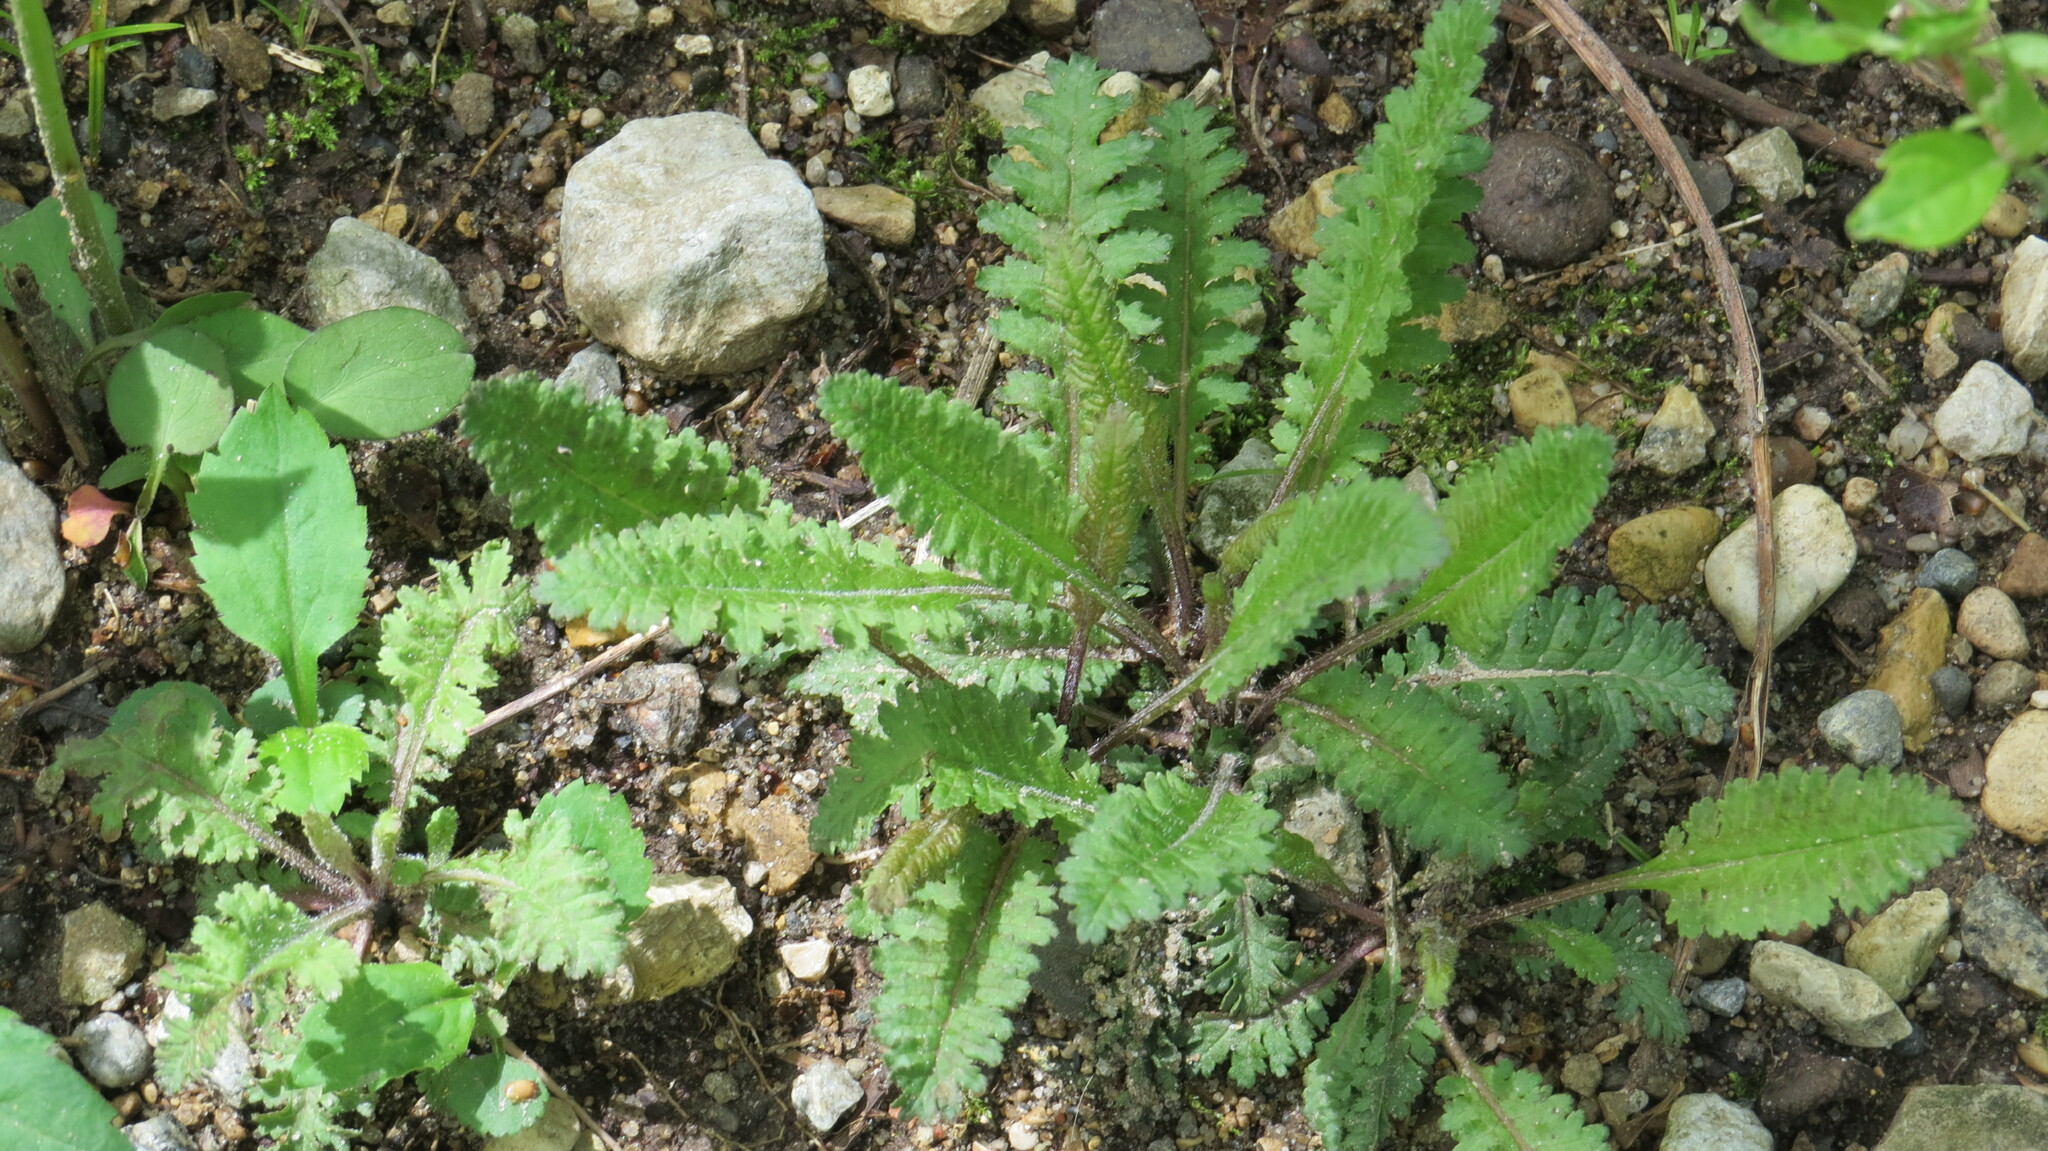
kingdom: Plantae
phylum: Tracheophyta
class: Magnoliopsida
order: Lamiales
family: Orobanchaceae
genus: Pedicularis
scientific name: Pedicularis canadensis
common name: Early lousewort
